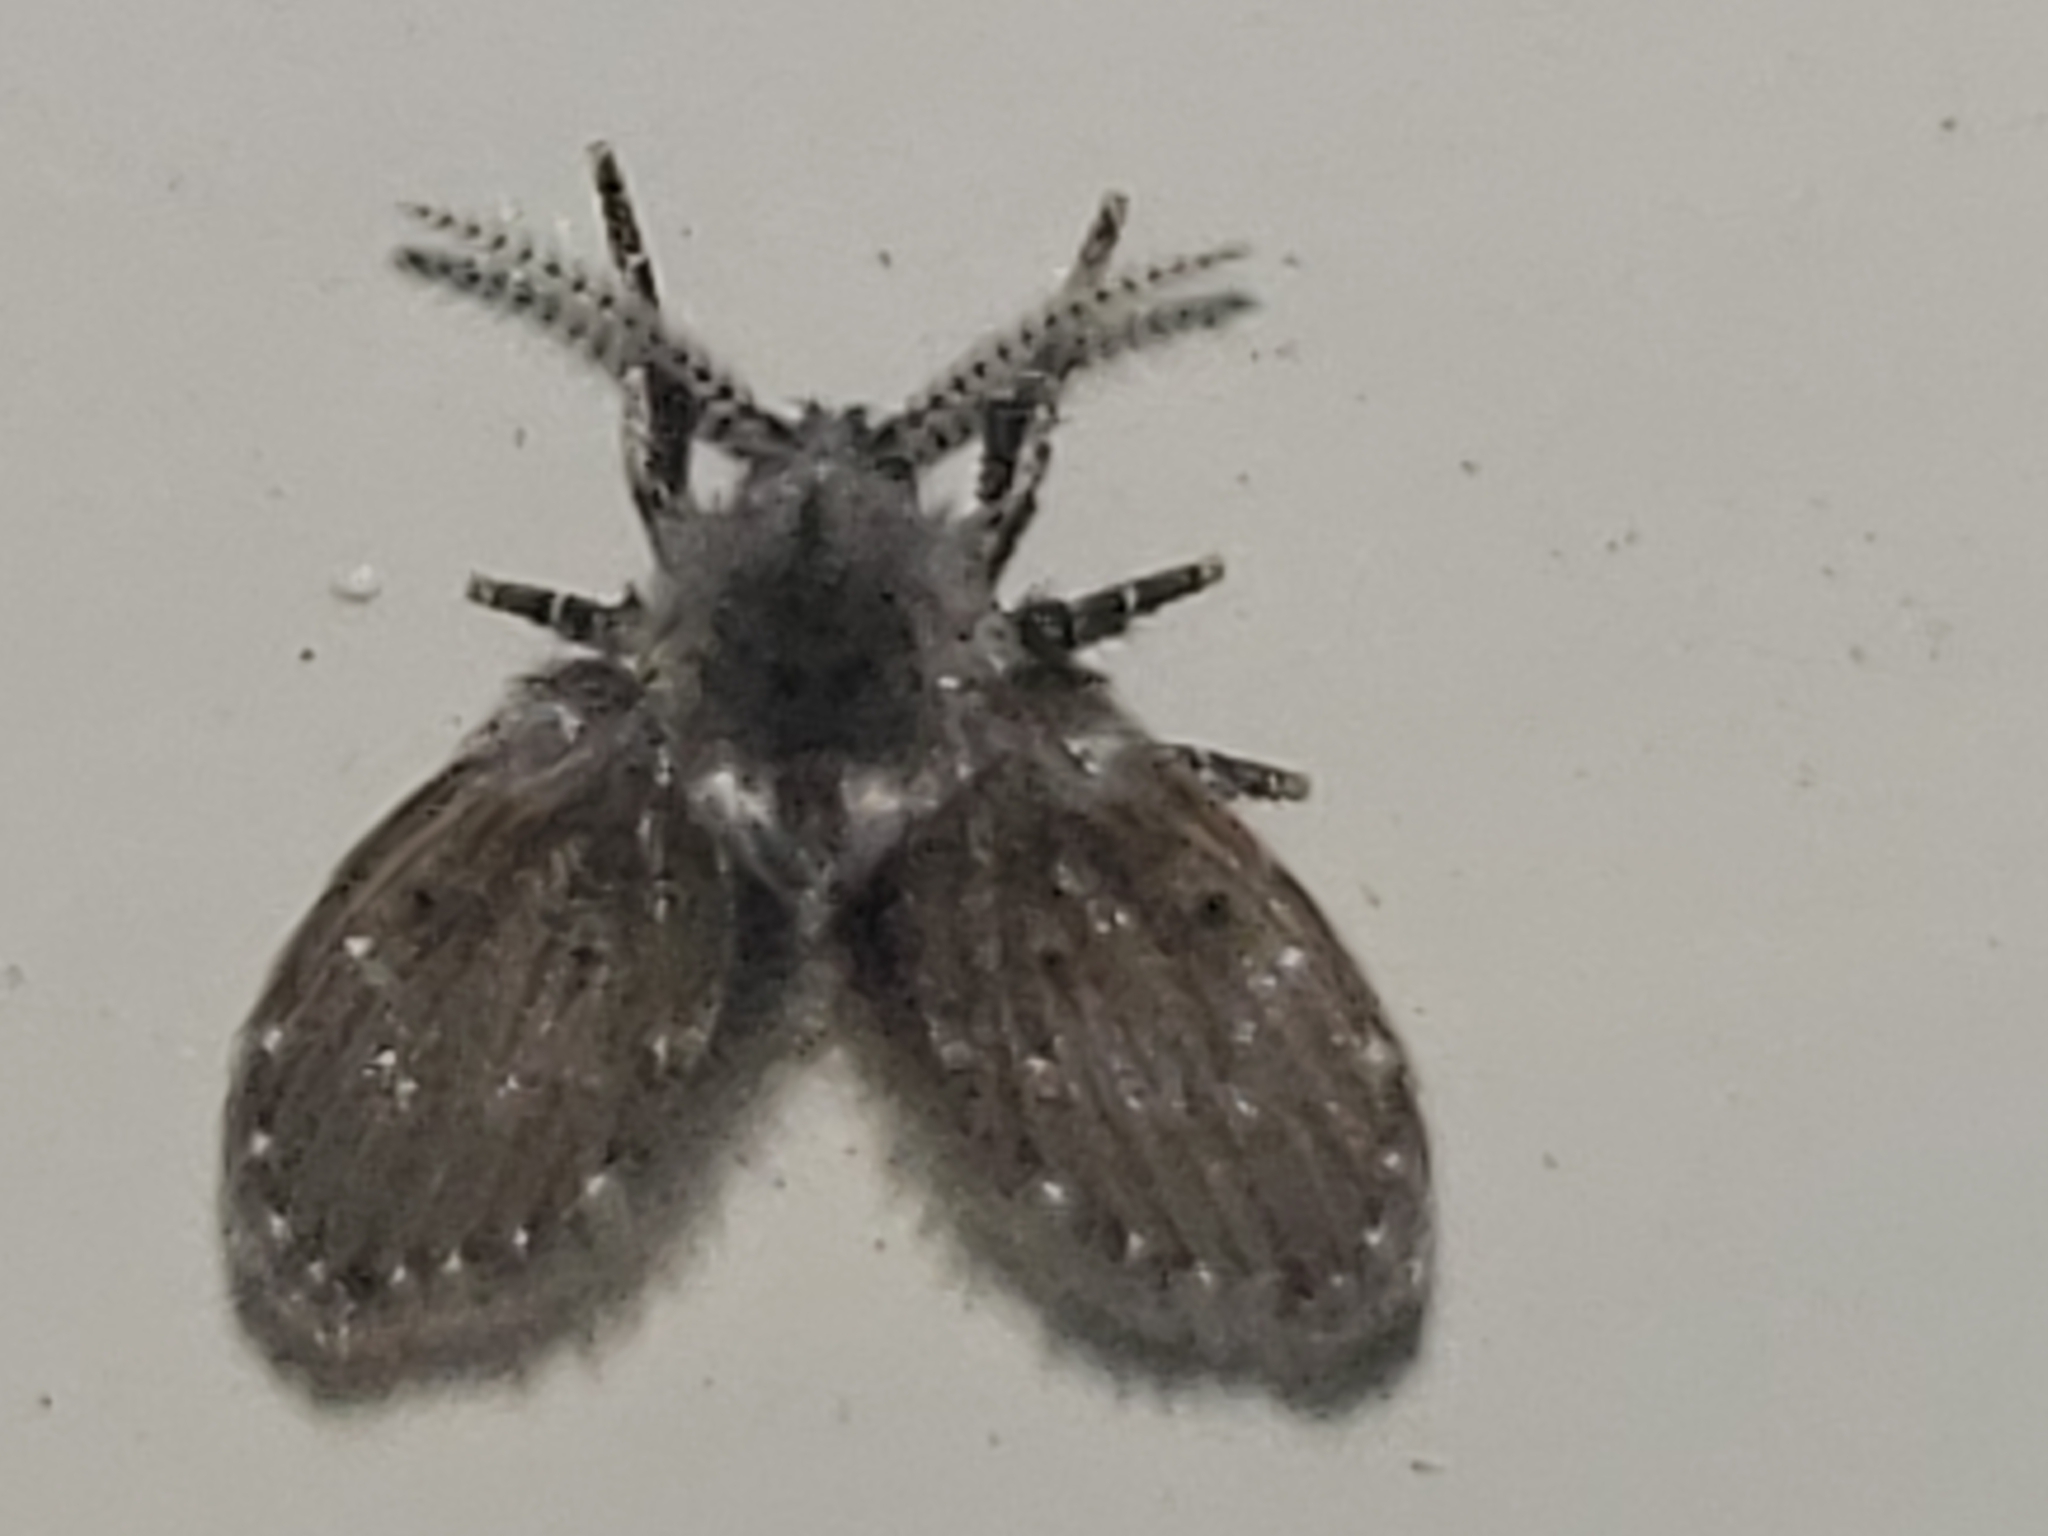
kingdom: Animalia
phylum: Arthropoda
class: Insecta
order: Diptera
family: Psychodidae
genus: Clogmia
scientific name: Clogmia albipunctatus
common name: White-spotted moth fly
